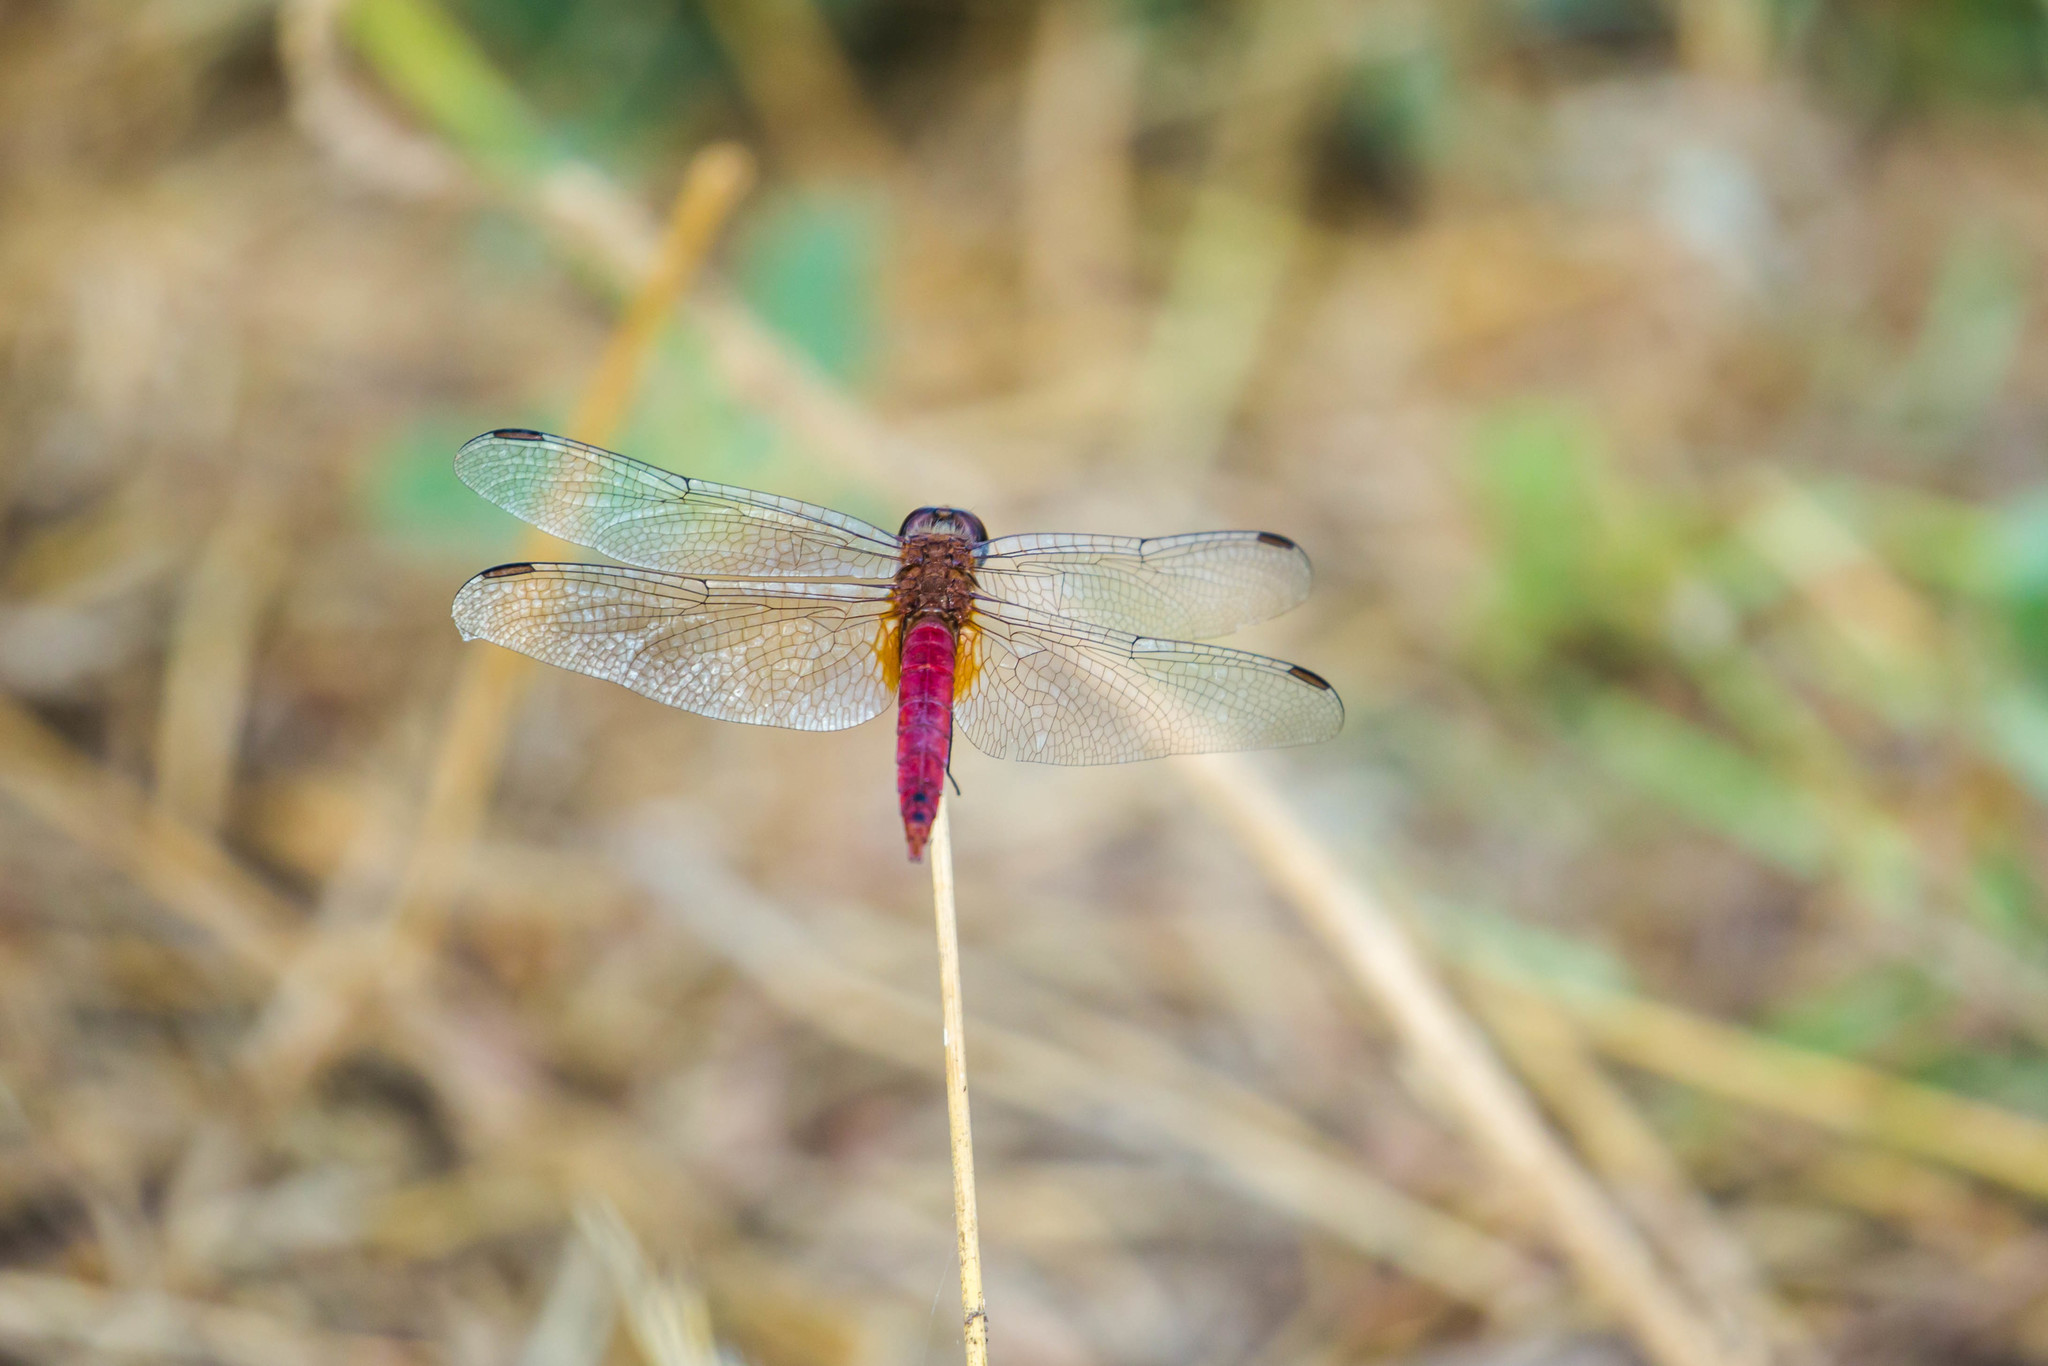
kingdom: Animalia
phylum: Arthropoda
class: Insecta
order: Odonata
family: Libellulidae
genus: Brachymesia
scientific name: Brachymesia furcata
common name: Red-taled pennant
